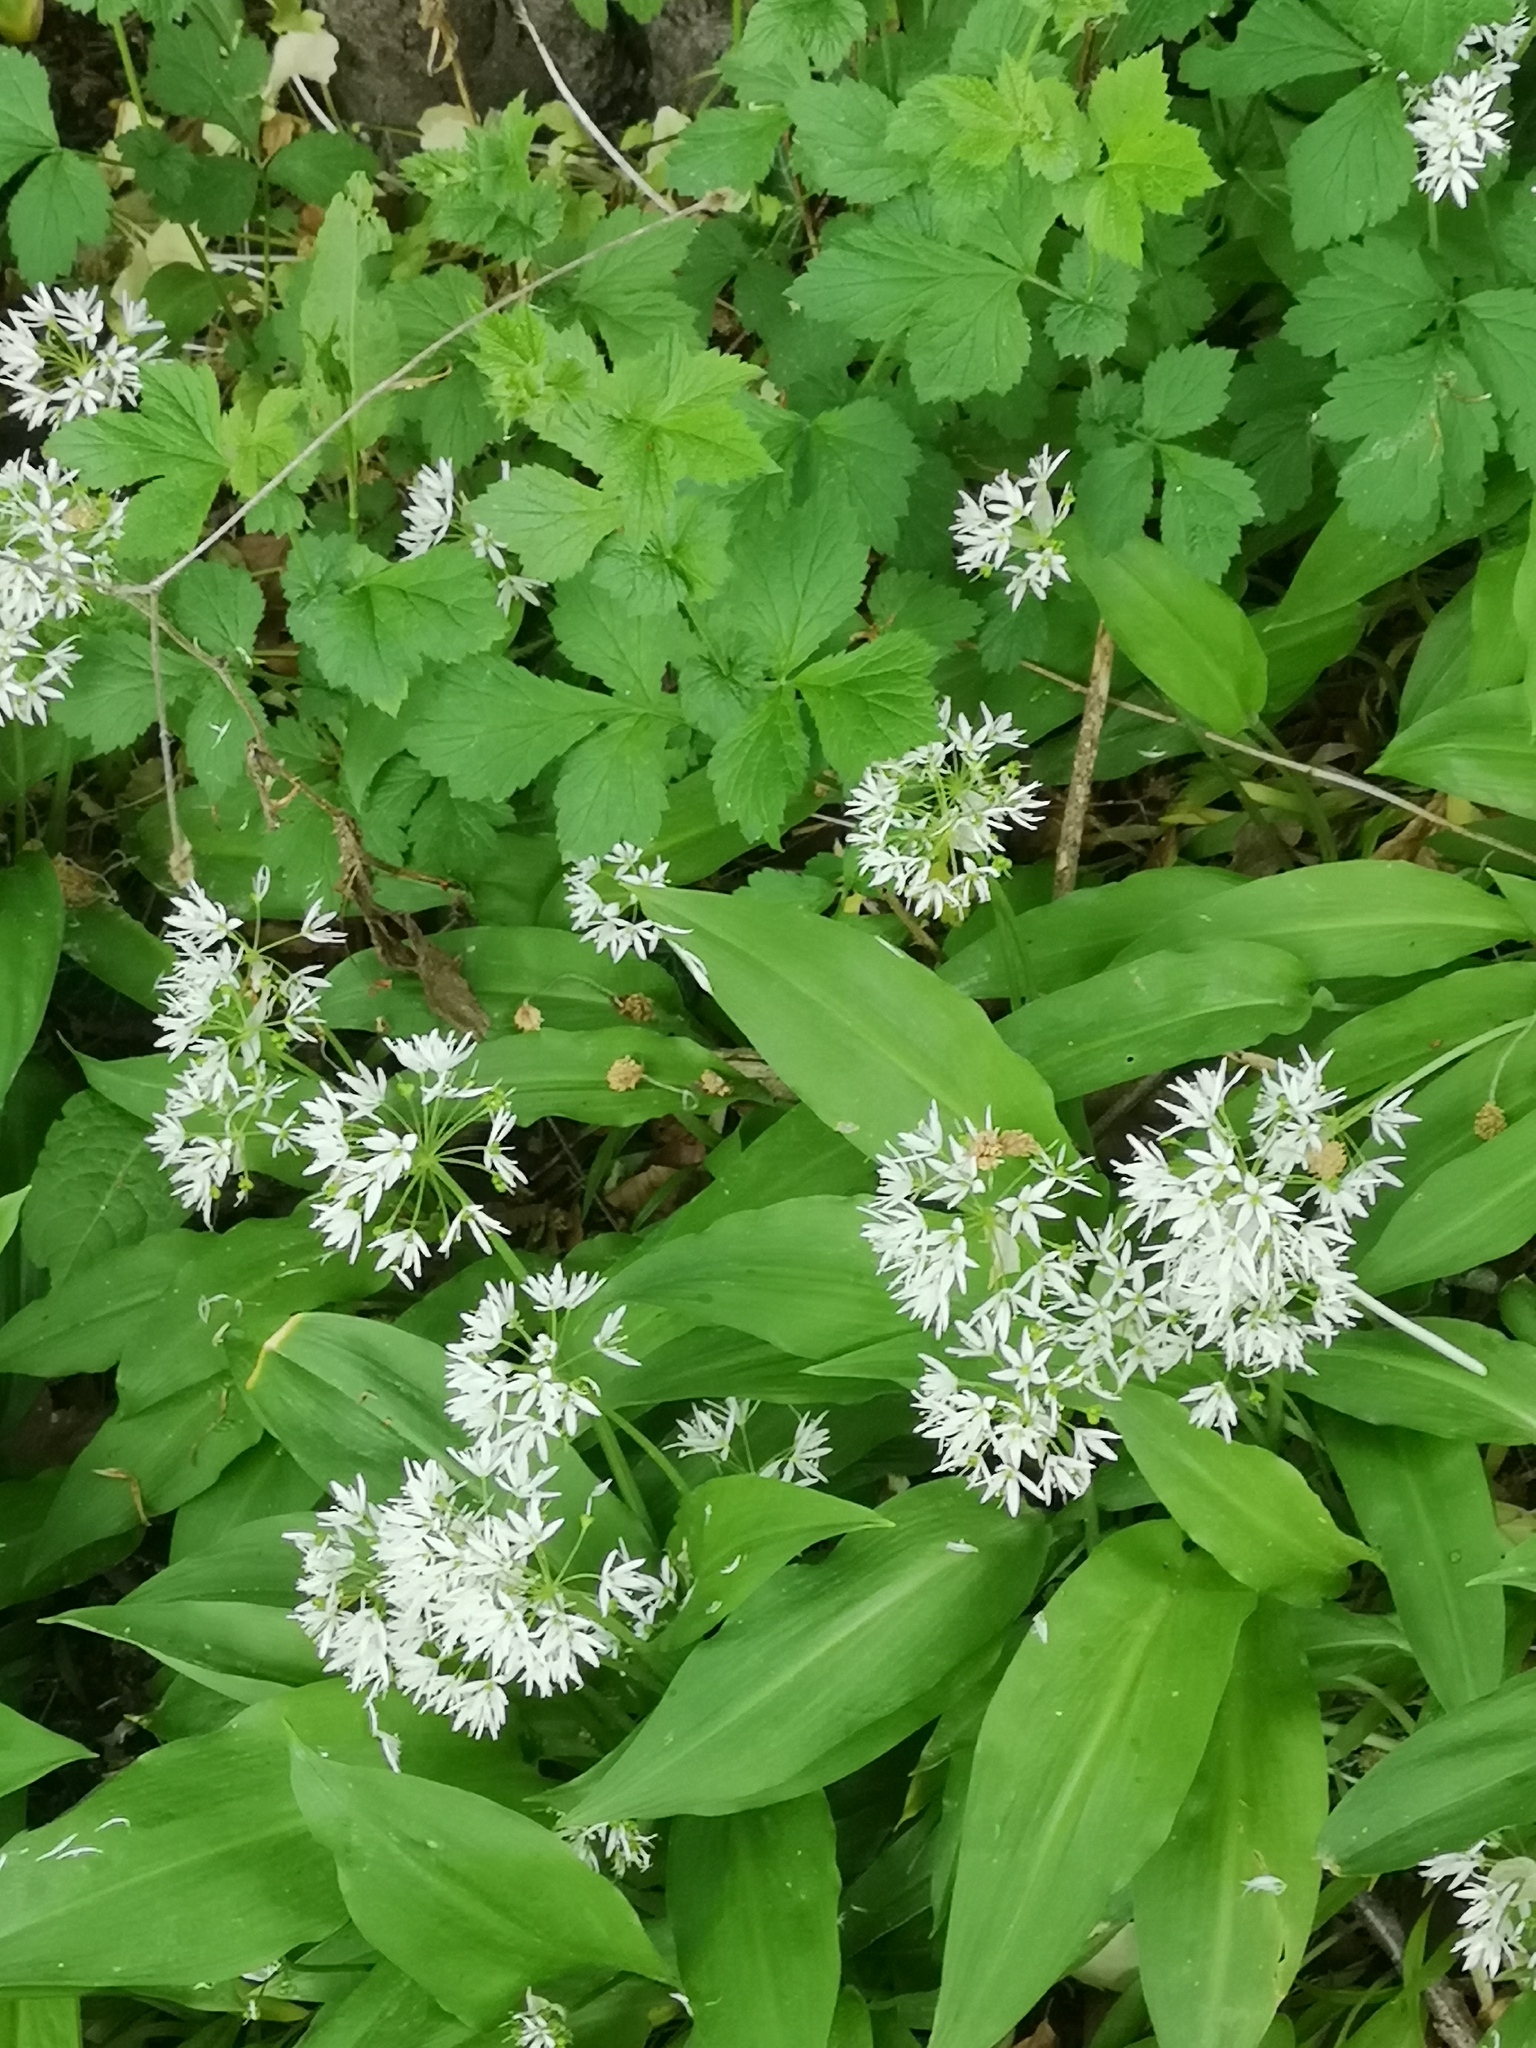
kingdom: Plantae
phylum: Tracheophyta
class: Liliopsida
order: Asparagales
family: Amaryllidaceae
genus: Allium
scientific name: Allium ursinum
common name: Ramsons
